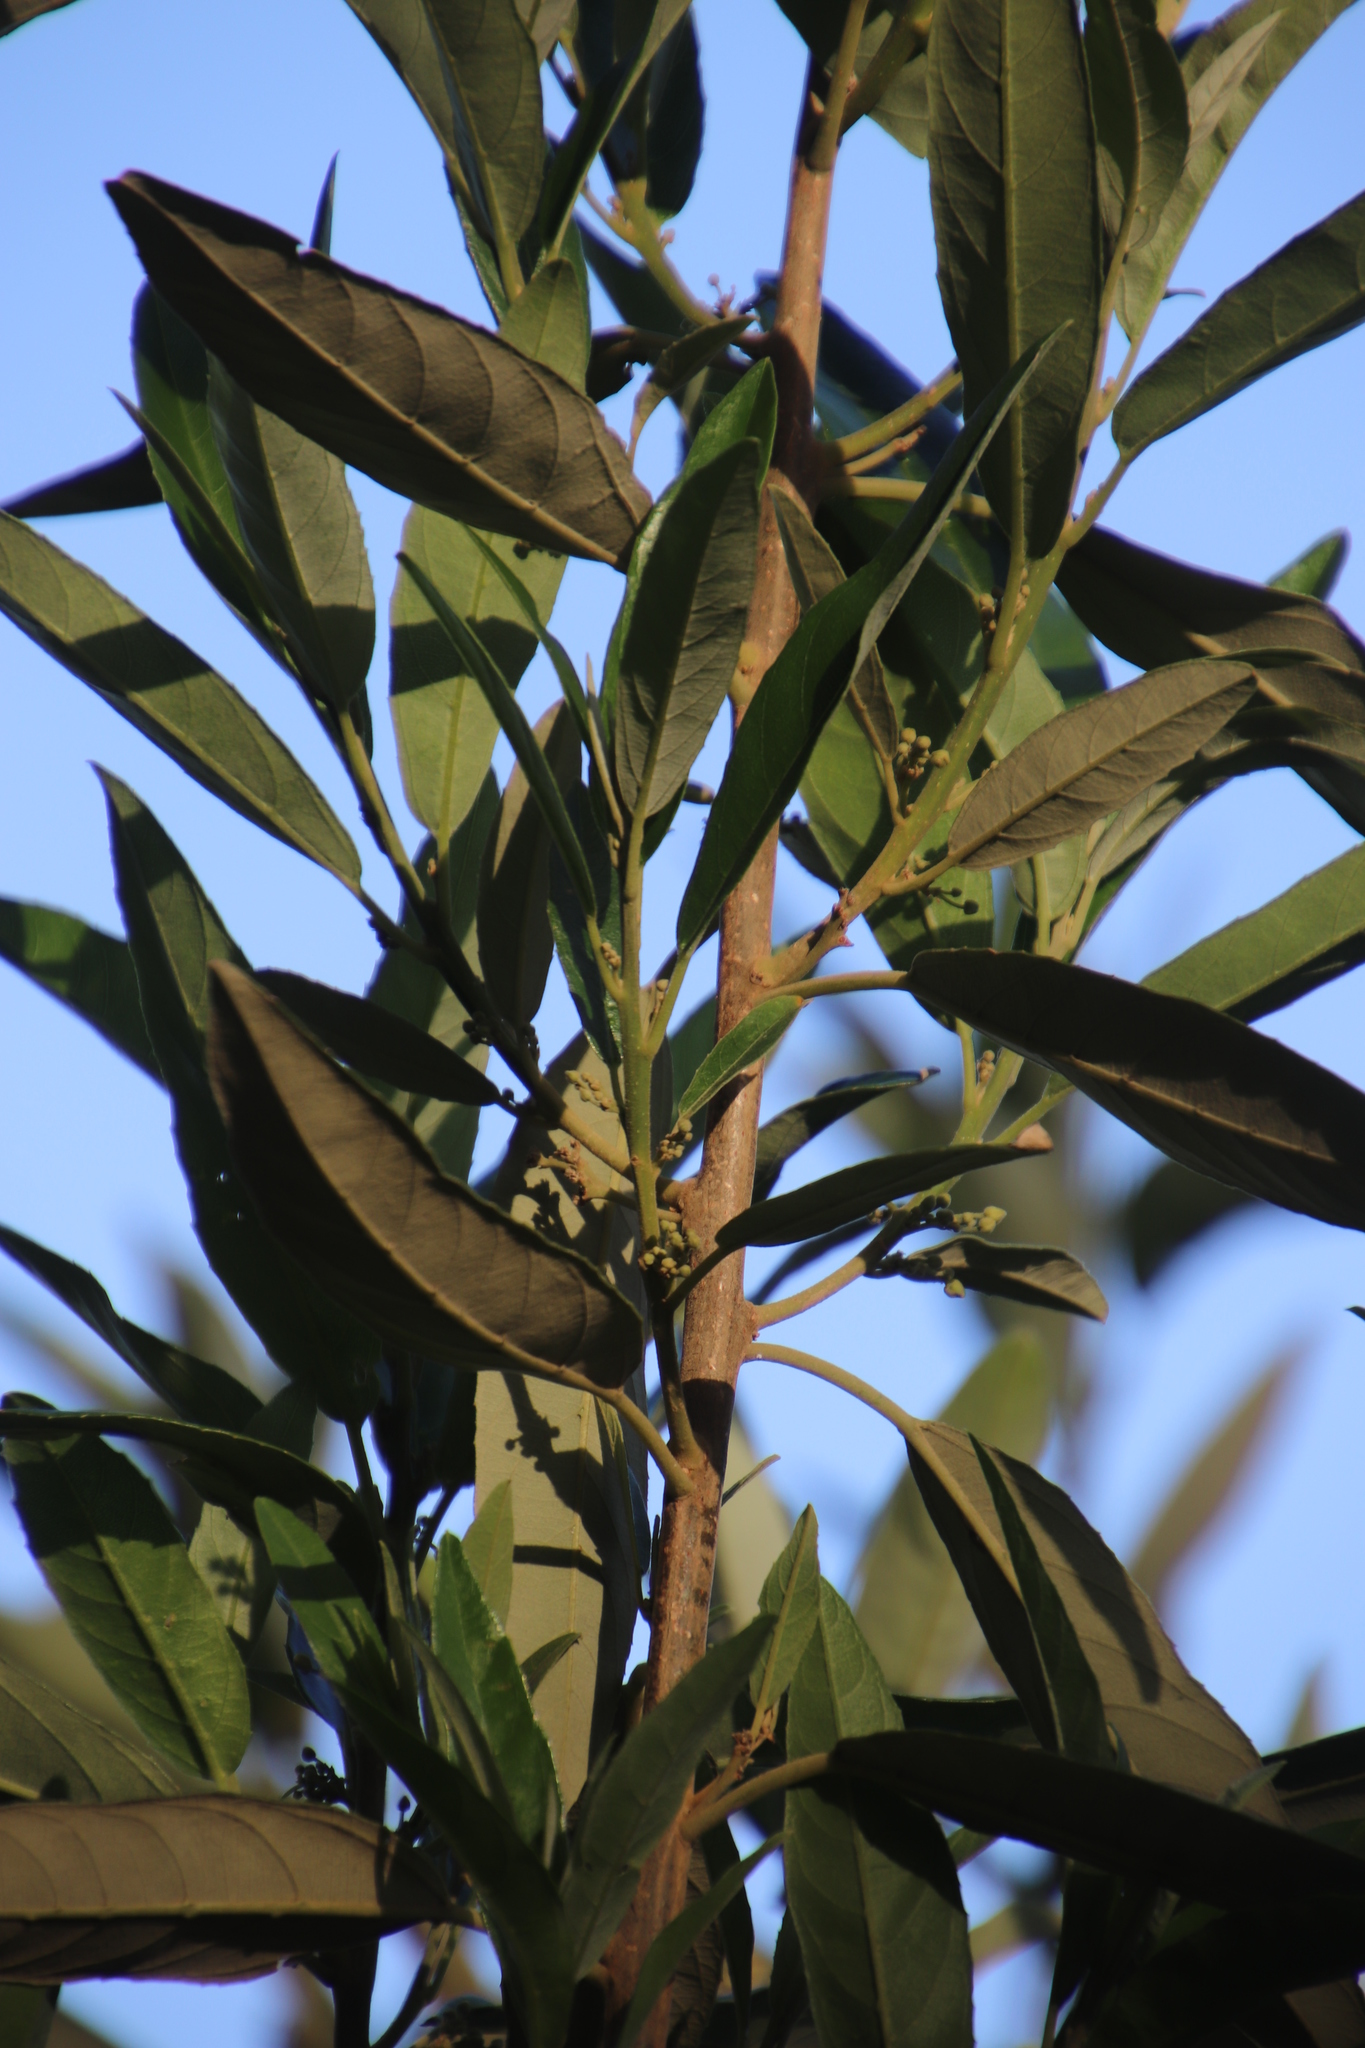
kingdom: Plantae
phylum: Tracheophyta
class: Magnoliopsida
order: Malpighiales
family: Achariaceae
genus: Kiggelaria
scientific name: Kiggelaria africana
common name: Wild peach
